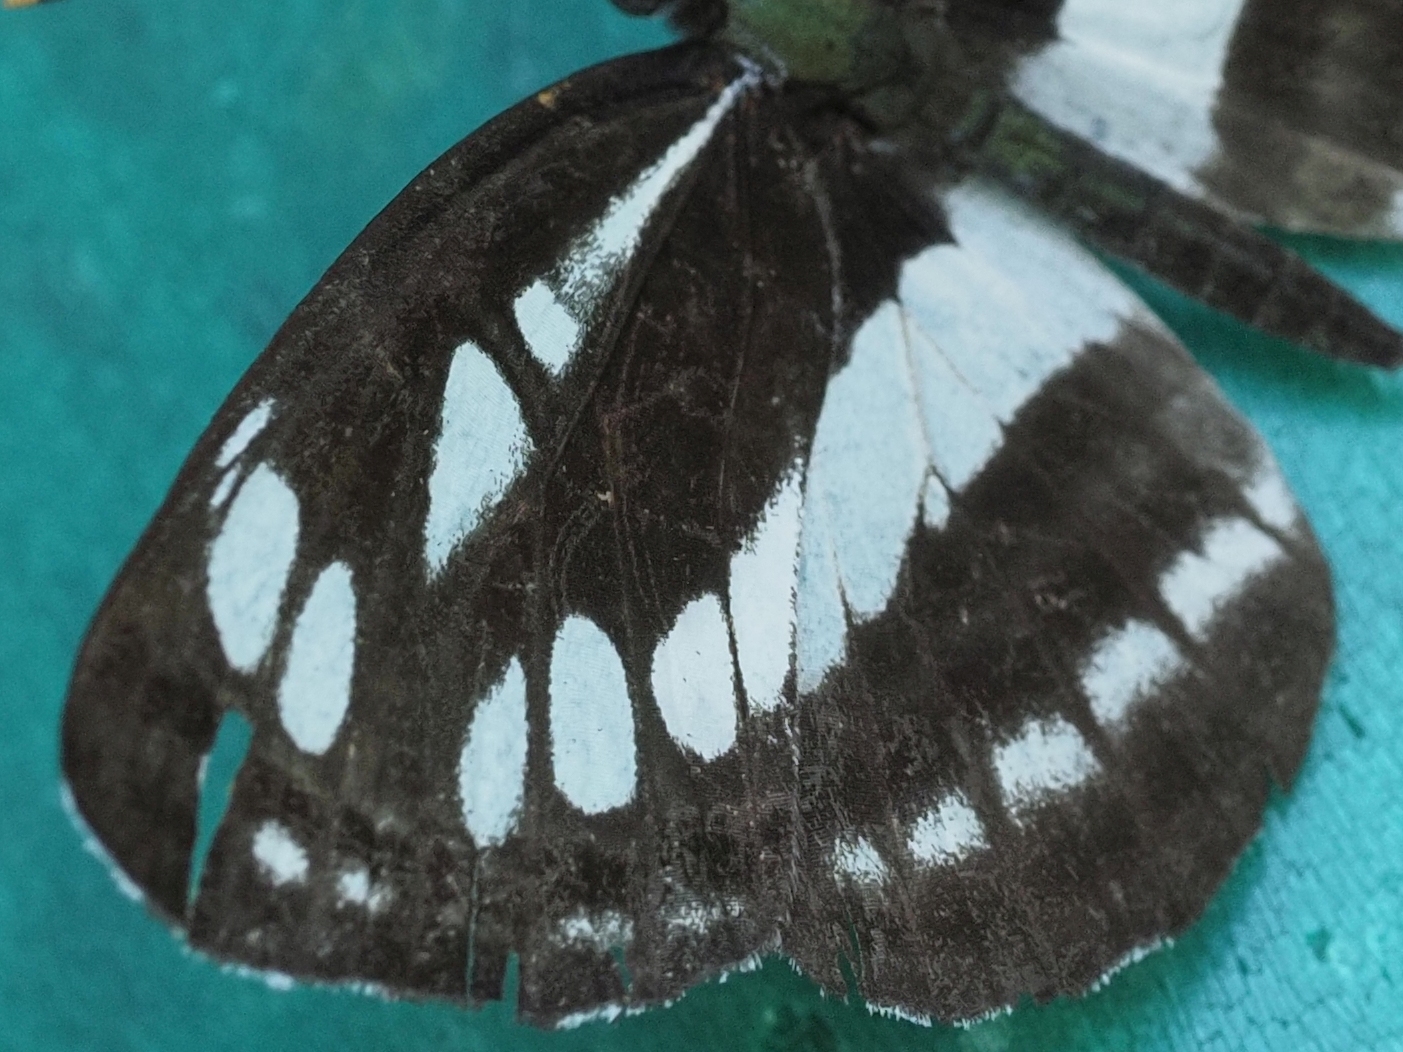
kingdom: Animalia
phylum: Arthropoda
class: Insecta
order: Lepidoptera
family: Nymphalidae
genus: Neptis
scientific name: Neptis sappho
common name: Common glider
